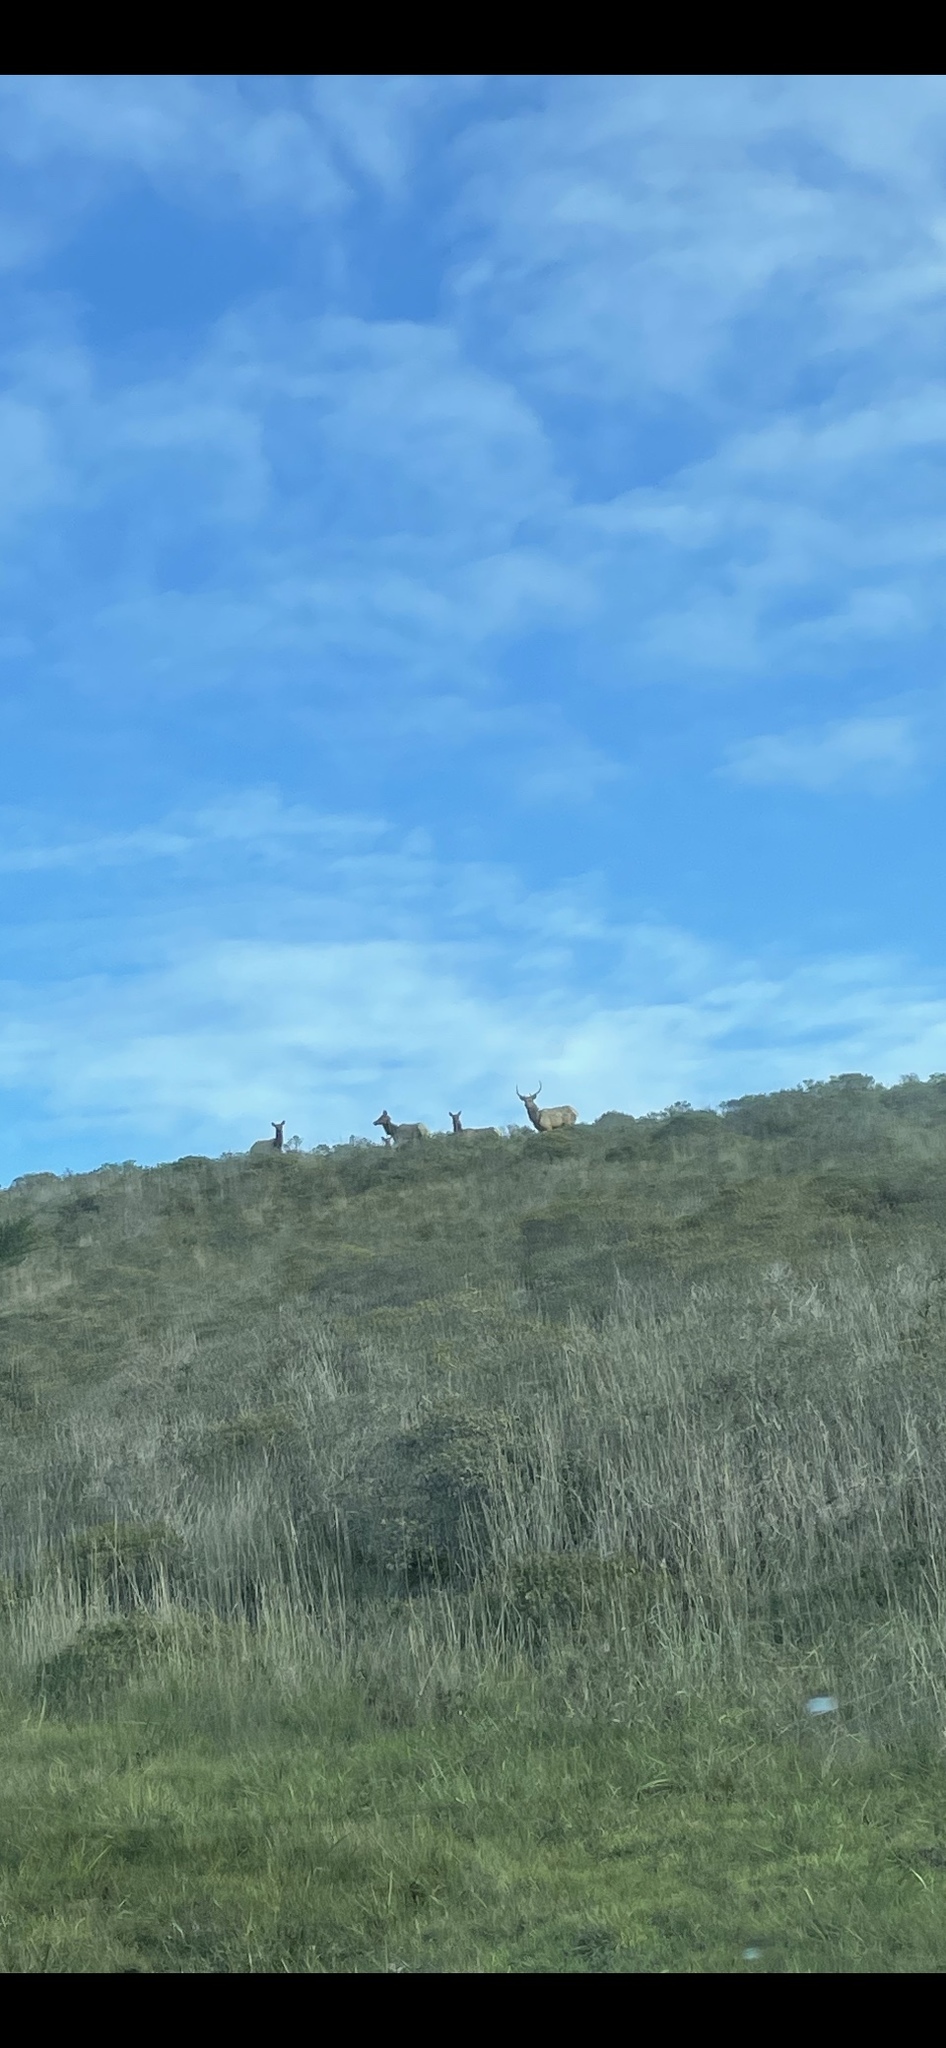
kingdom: Animalia
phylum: Chordata
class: Mammalia
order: Artiodactyla
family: Cervidae
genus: Cervus
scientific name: Cervus elaphus
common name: Red deer
